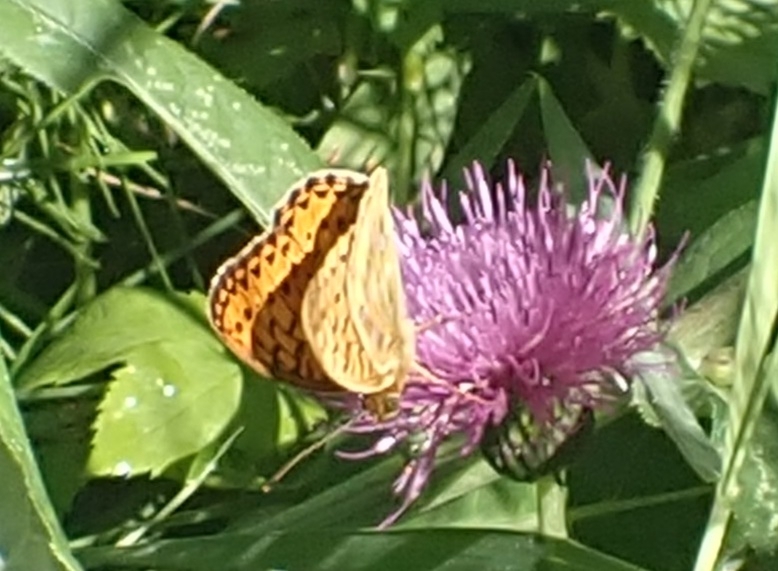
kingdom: Animalia
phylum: Arthropoda
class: Insecta
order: Lepidoptera
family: Nymphalidae
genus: Speyeria
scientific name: Speyeria aglaja
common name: Dark green fritillary
